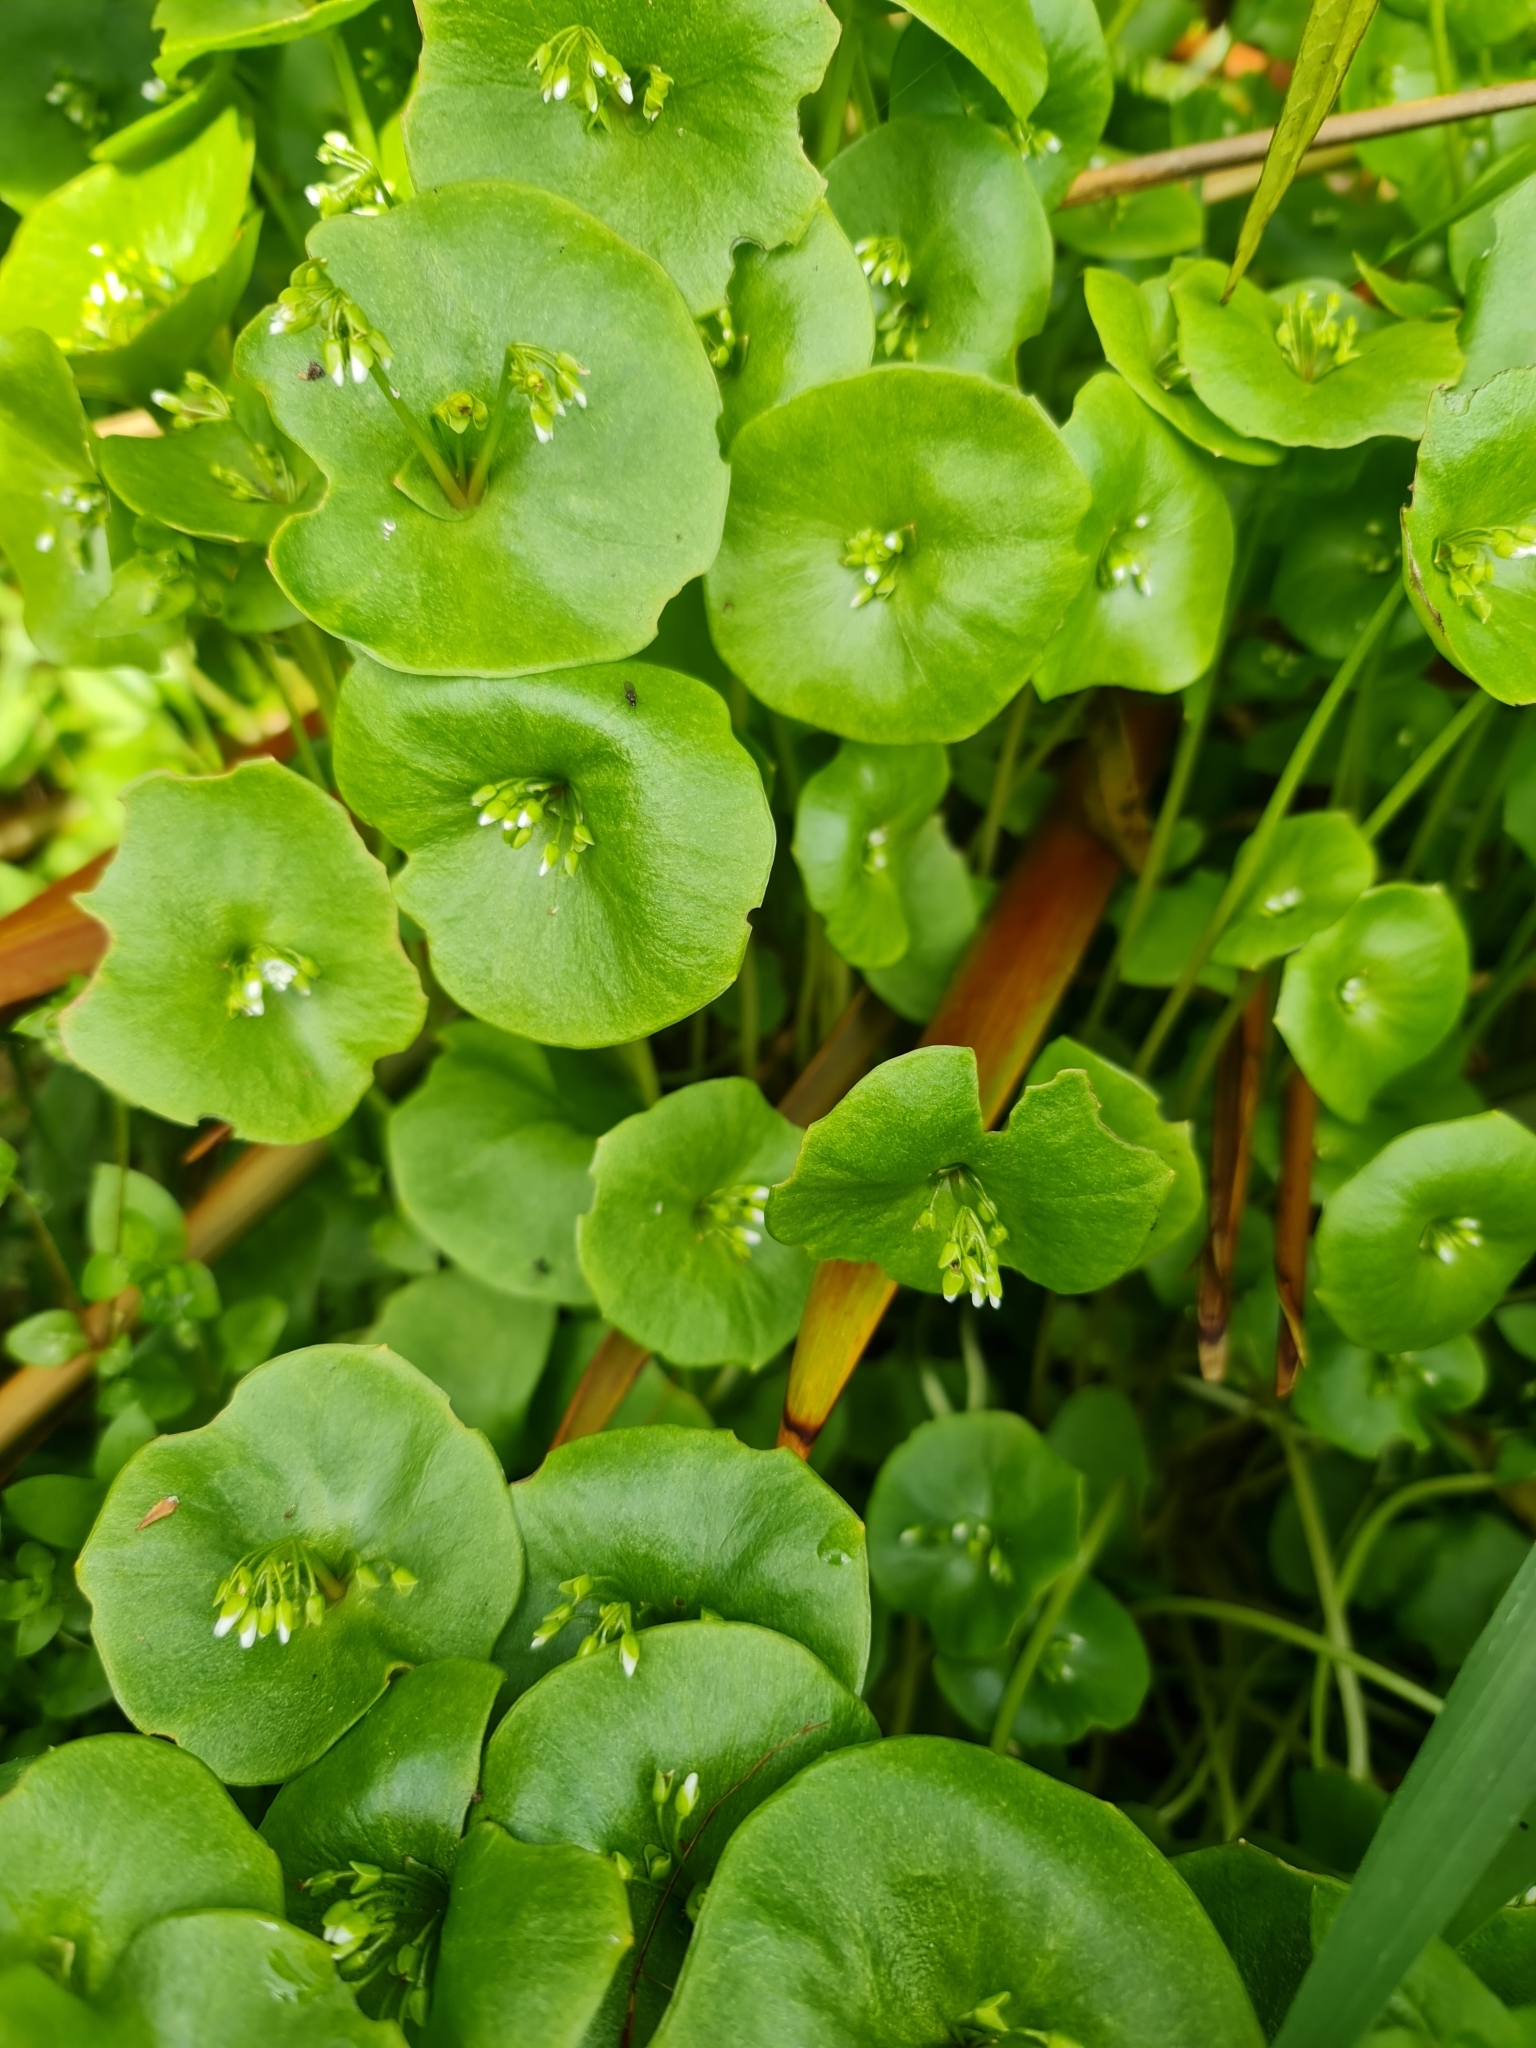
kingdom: Plantae
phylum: Tracheophyta
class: Magnoliopsida
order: Caryophyllales
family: Montiaceae
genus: Claytonia
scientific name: Claytonia perfoliata
